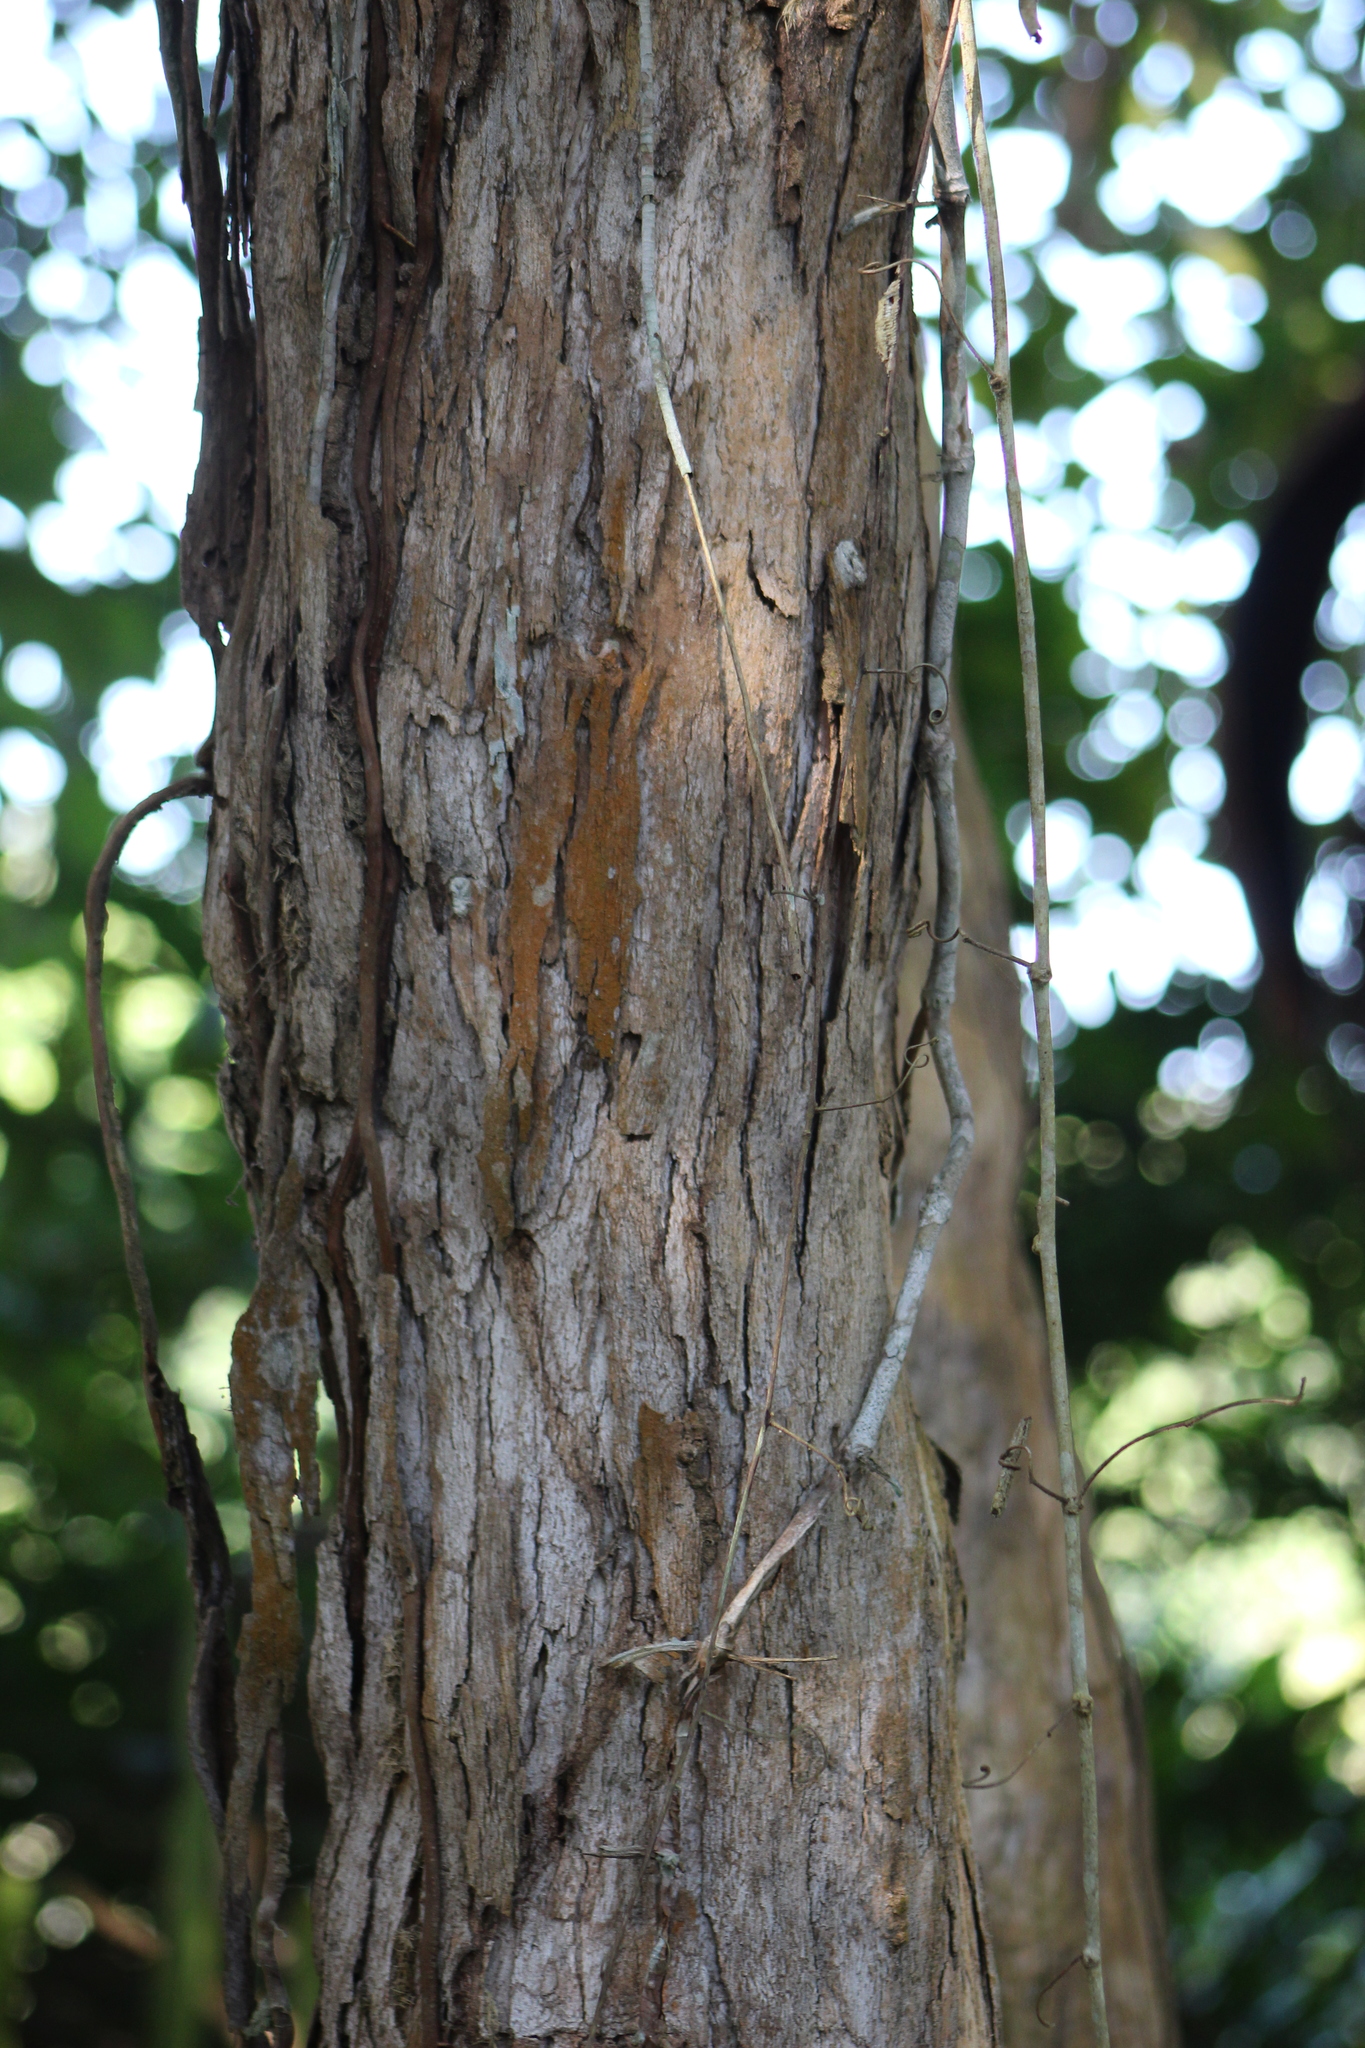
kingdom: Plantae
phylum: Tracheophyta
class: Magnoliopsida
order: Myrtales
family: Melastomataceae
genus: Miconia
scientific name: Miconia argentea
